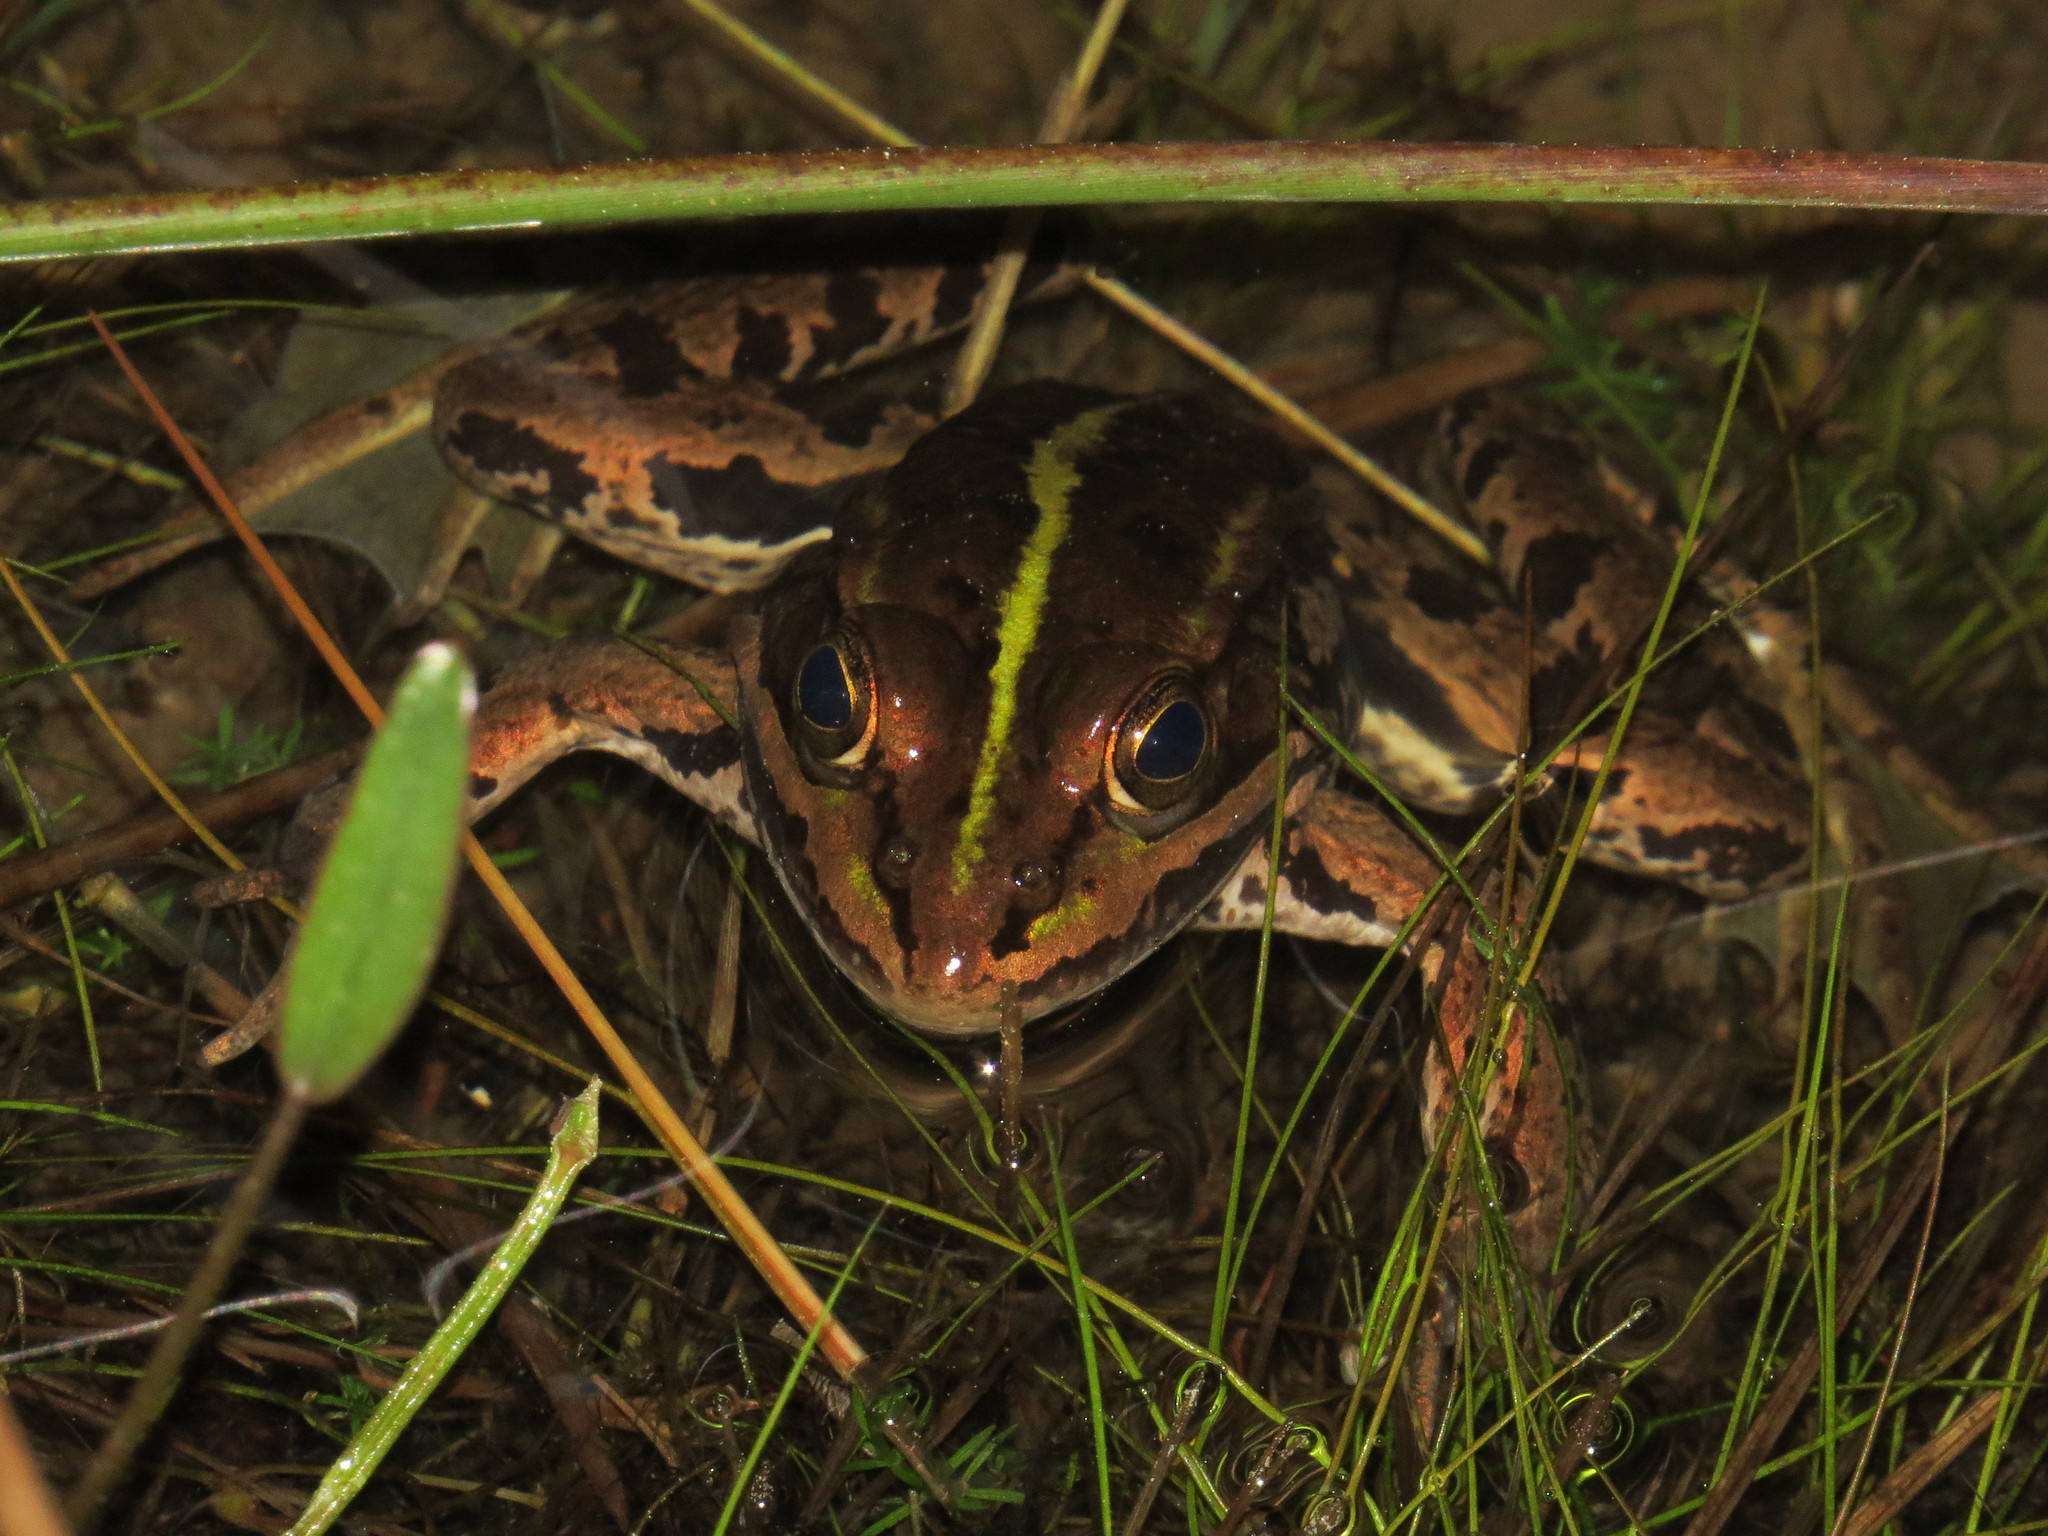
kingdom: Animalia
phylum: Chordata
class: Amphibia
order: Anura
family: Ranidae
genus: Pelophylax
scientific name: Pelophylax bergeri
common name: Italian pool frog
